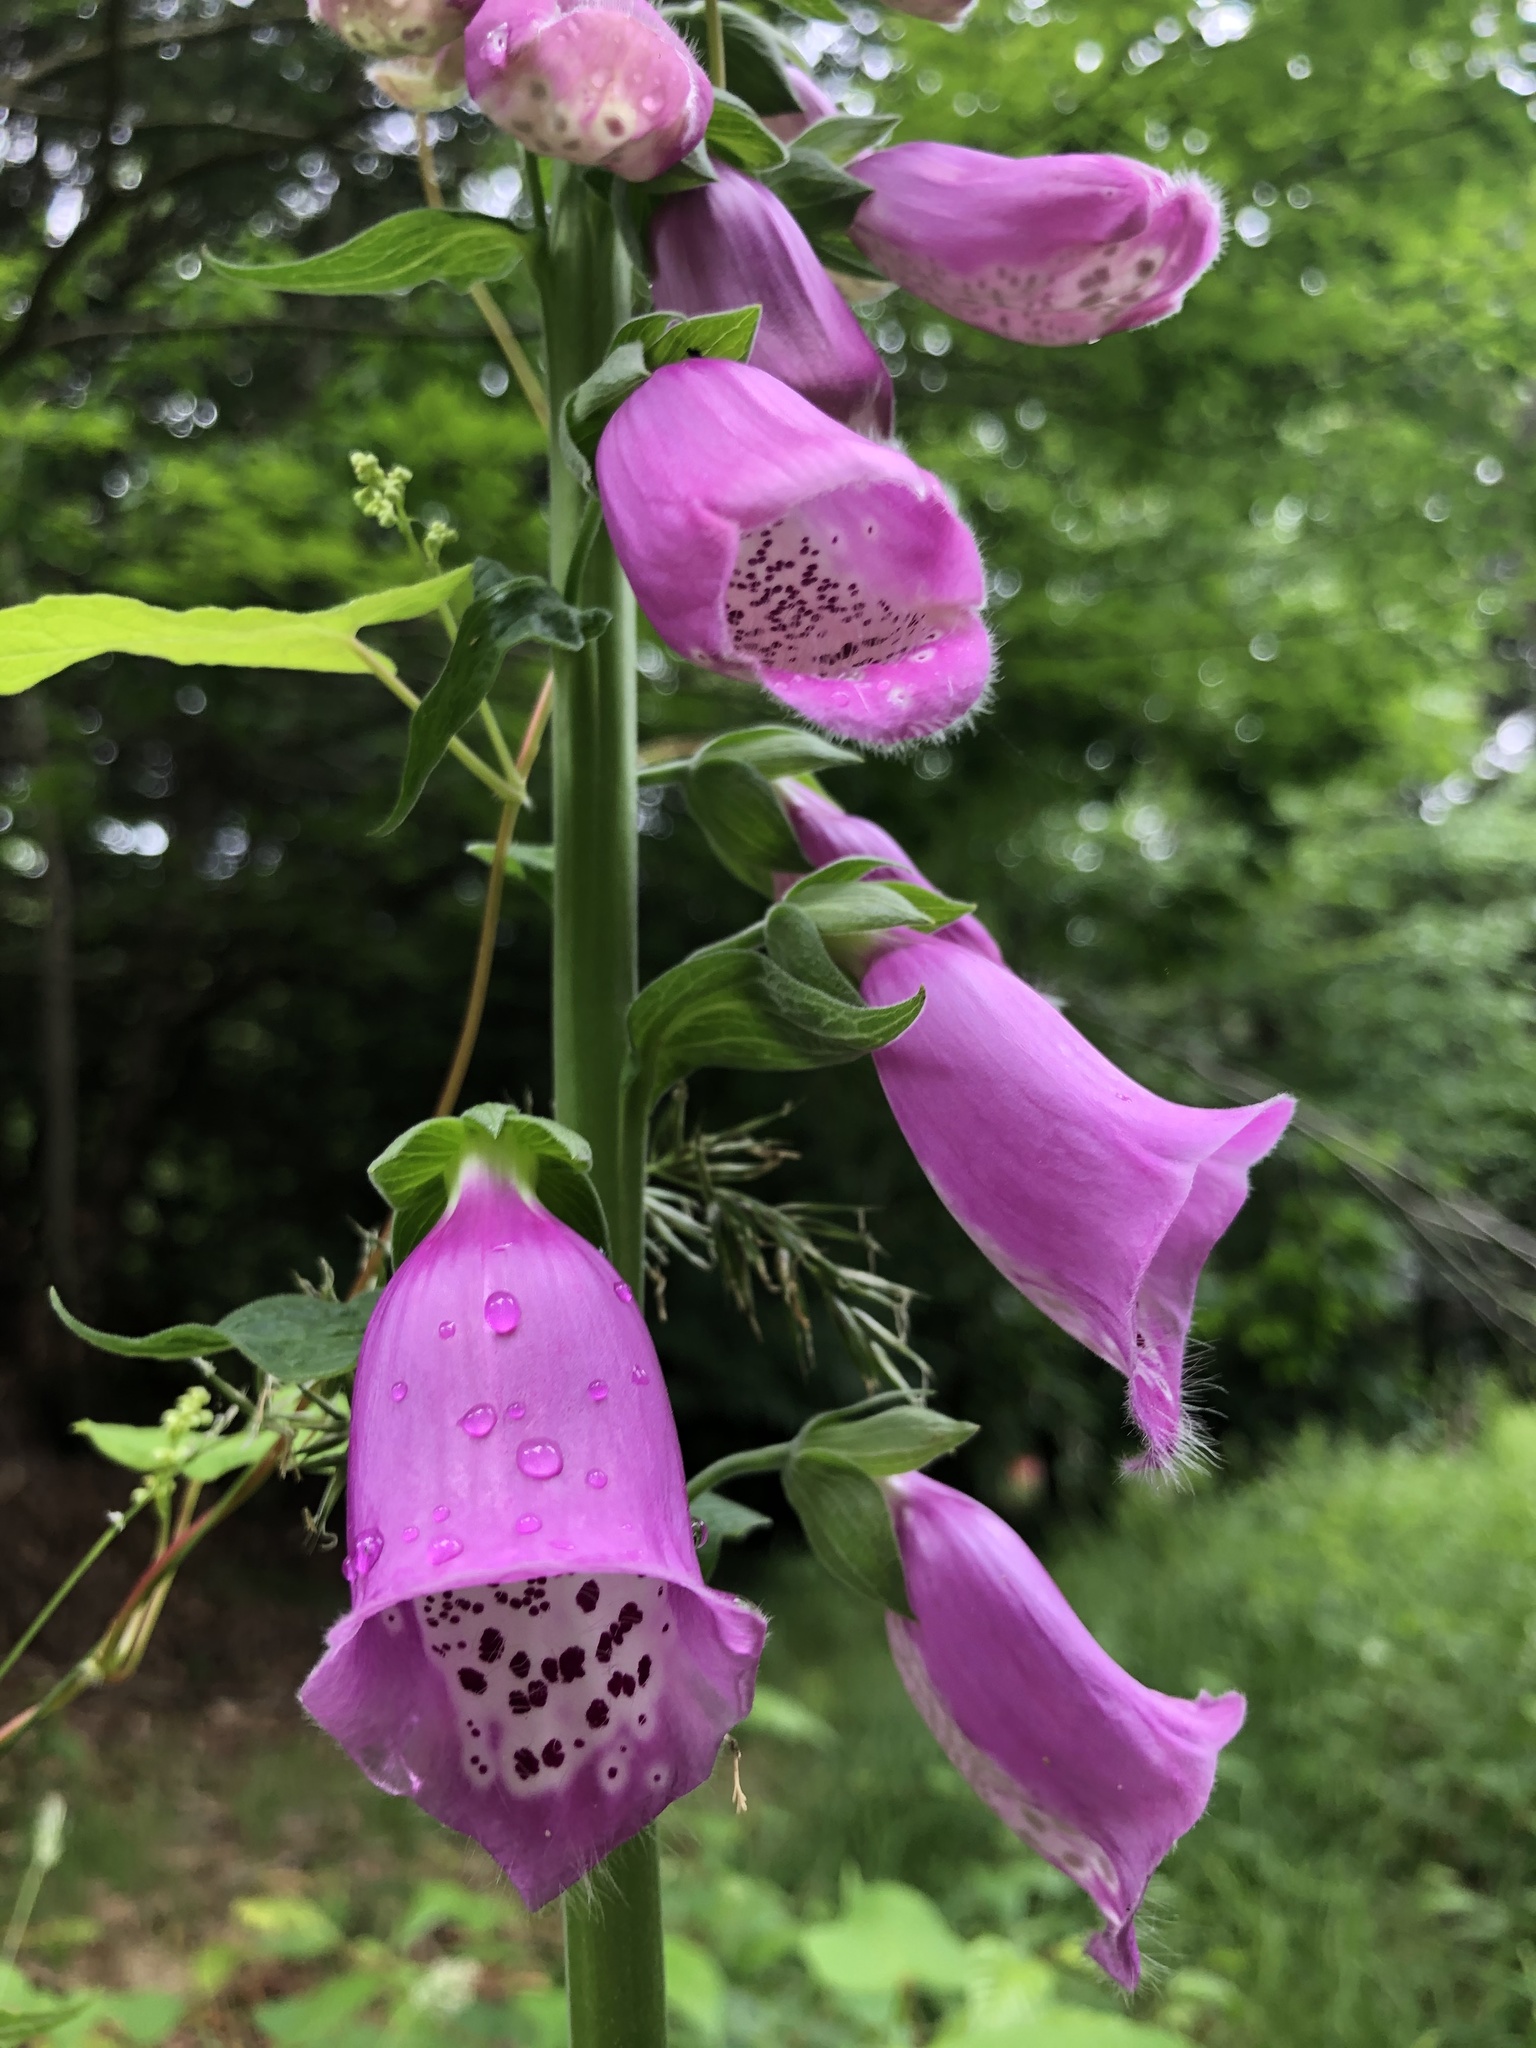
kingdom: Plantae
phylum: Tracheophyta
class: Magnoliopsida
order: Lamiales
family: Plantaginaceae
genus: Digitalis
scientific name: Digitalis purpurea
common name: Foxglove
